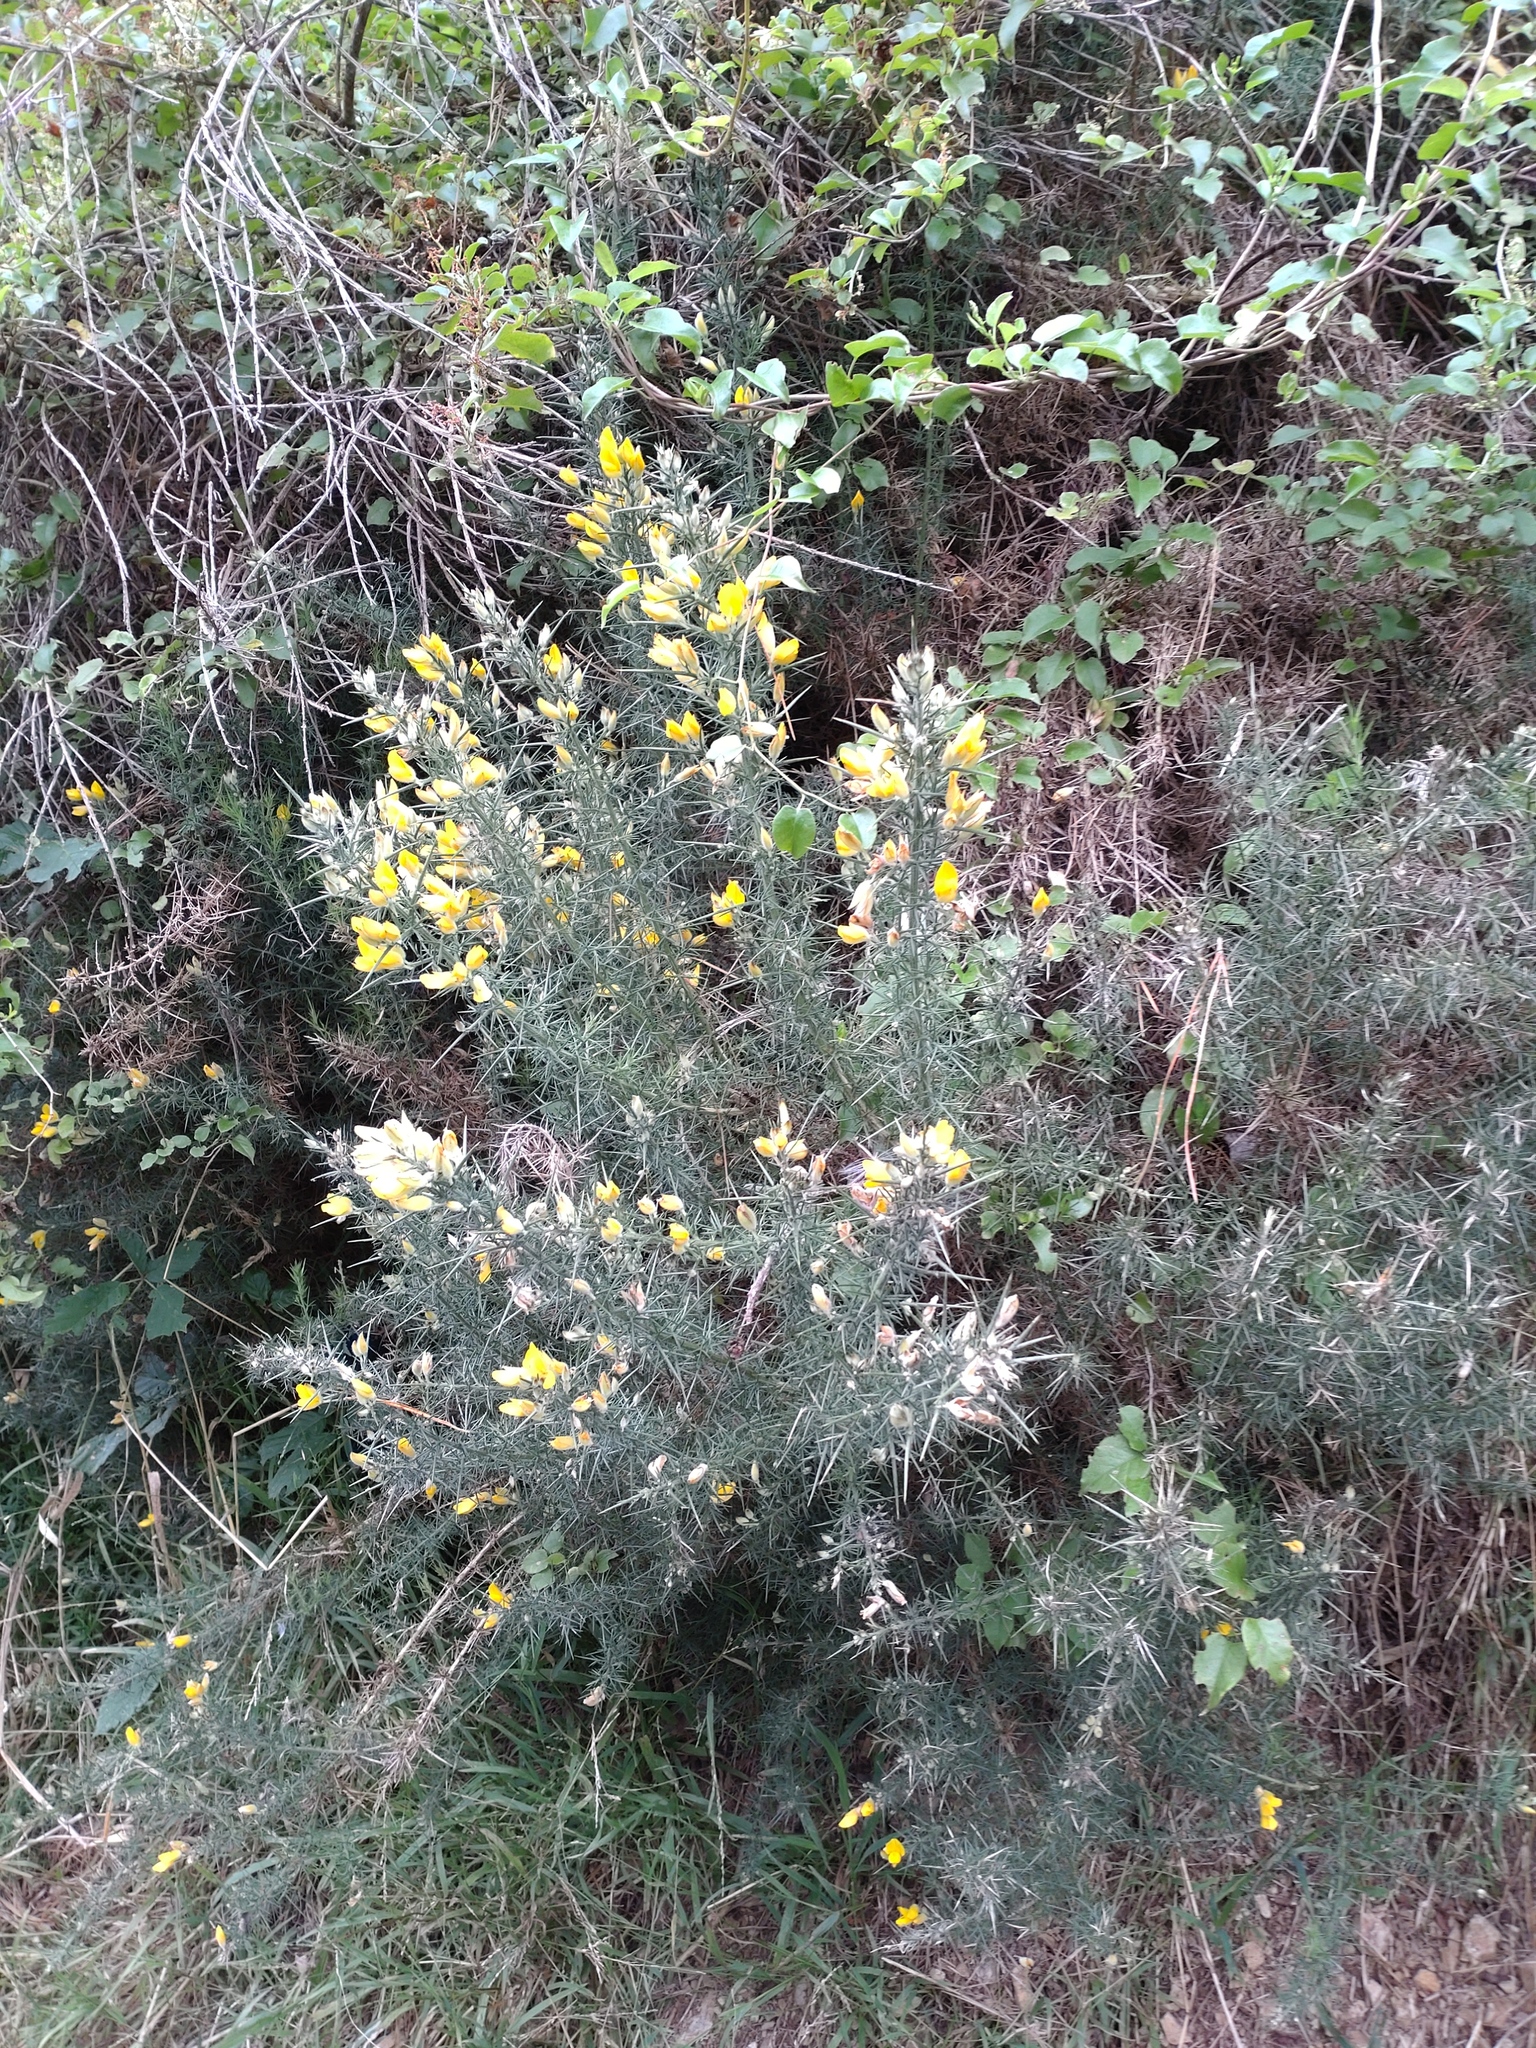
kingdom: Plantae
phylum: Tracheophyta
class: Magnoliopsida
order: Fabales
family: Fabaceae
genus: Ulex
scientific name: Ulex europaeus
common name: Common gorse
